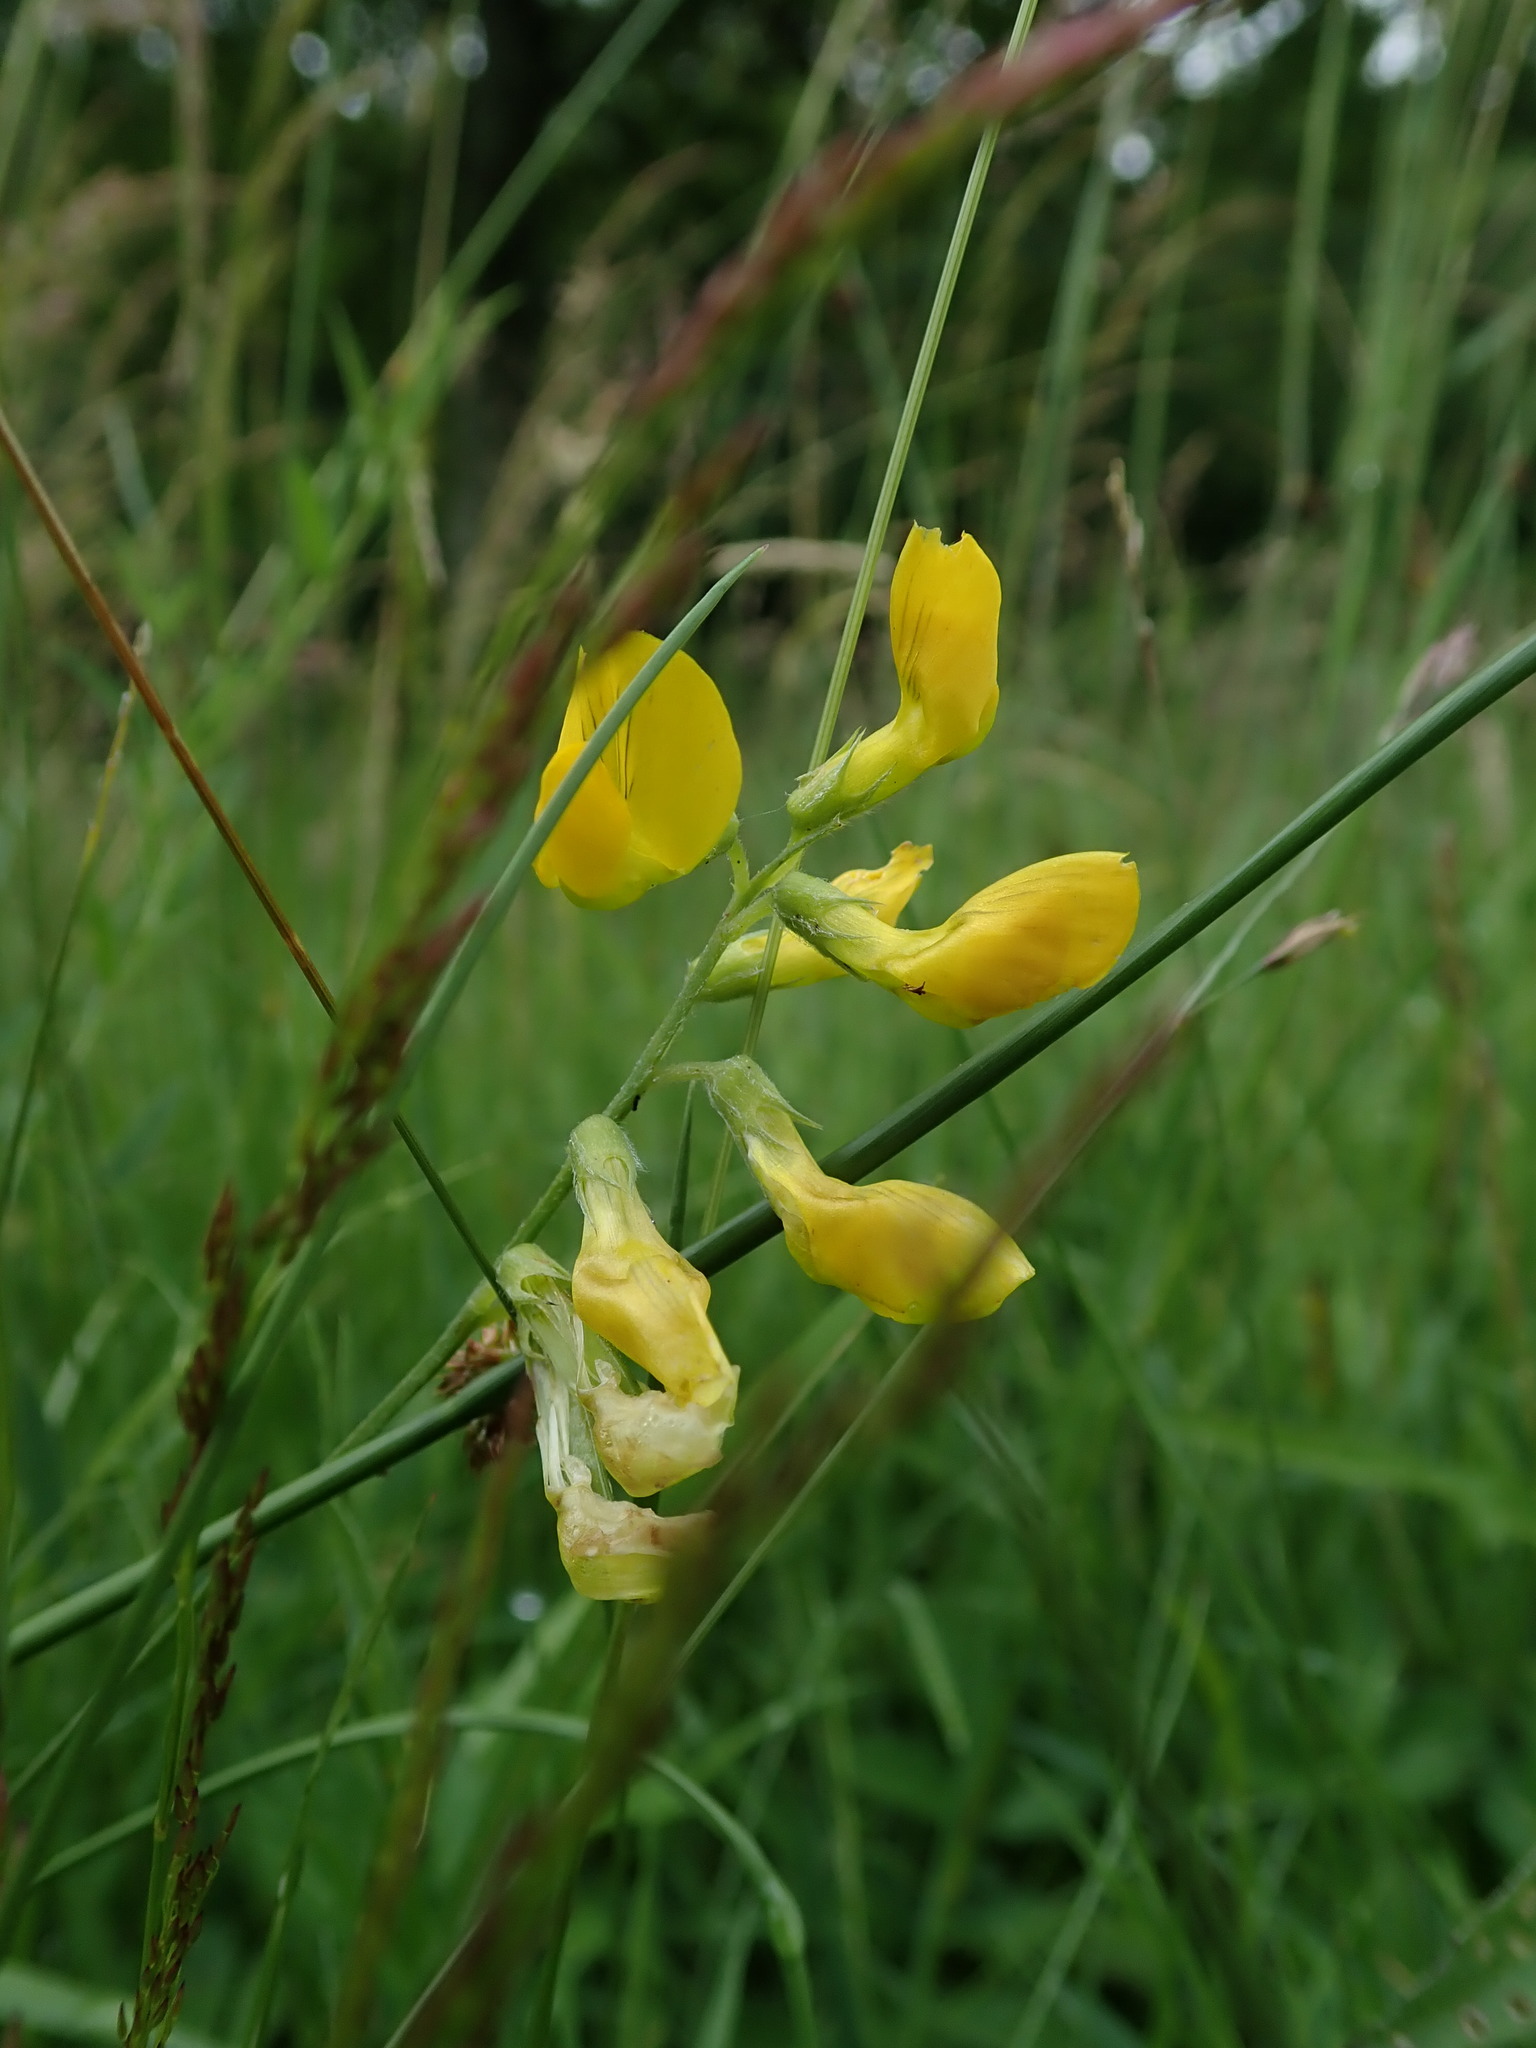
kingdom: Plantae
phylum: Tracheophyta
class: Magnoliopsida
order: Fabales
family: Fabaceae
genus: Lathyrus
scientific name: Lathyrus pratensis
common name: Meadow vetchling
